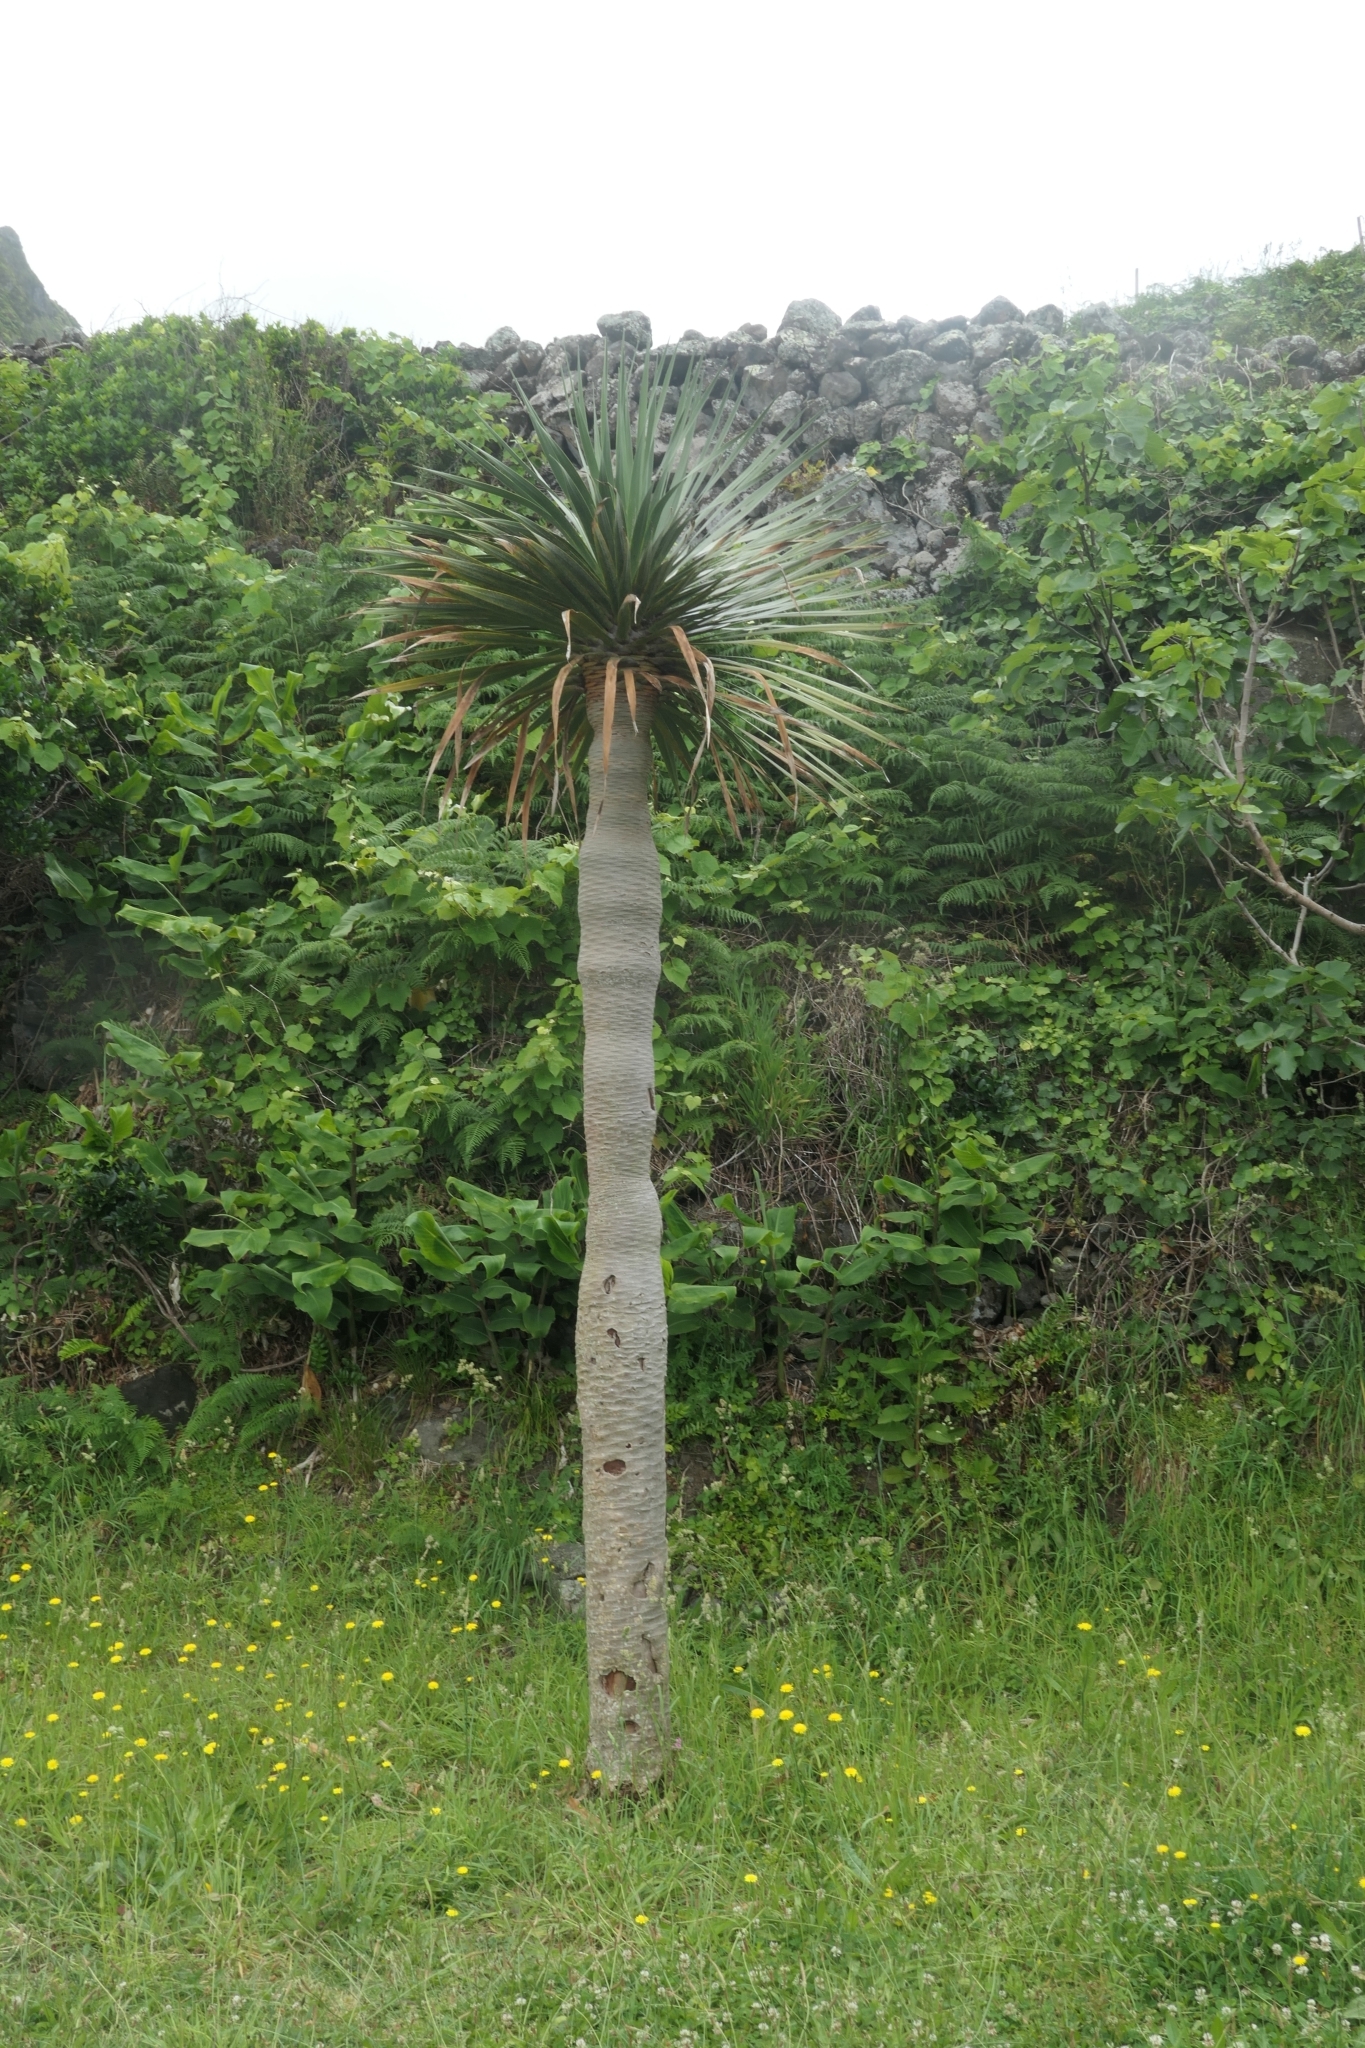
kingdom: Plantae
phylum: Tracheophyta
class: Liliopsida
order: Asparagales
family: Asparagaceae
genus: Dracaena
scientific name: Dracaena draco
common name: Canary island dragon tree
